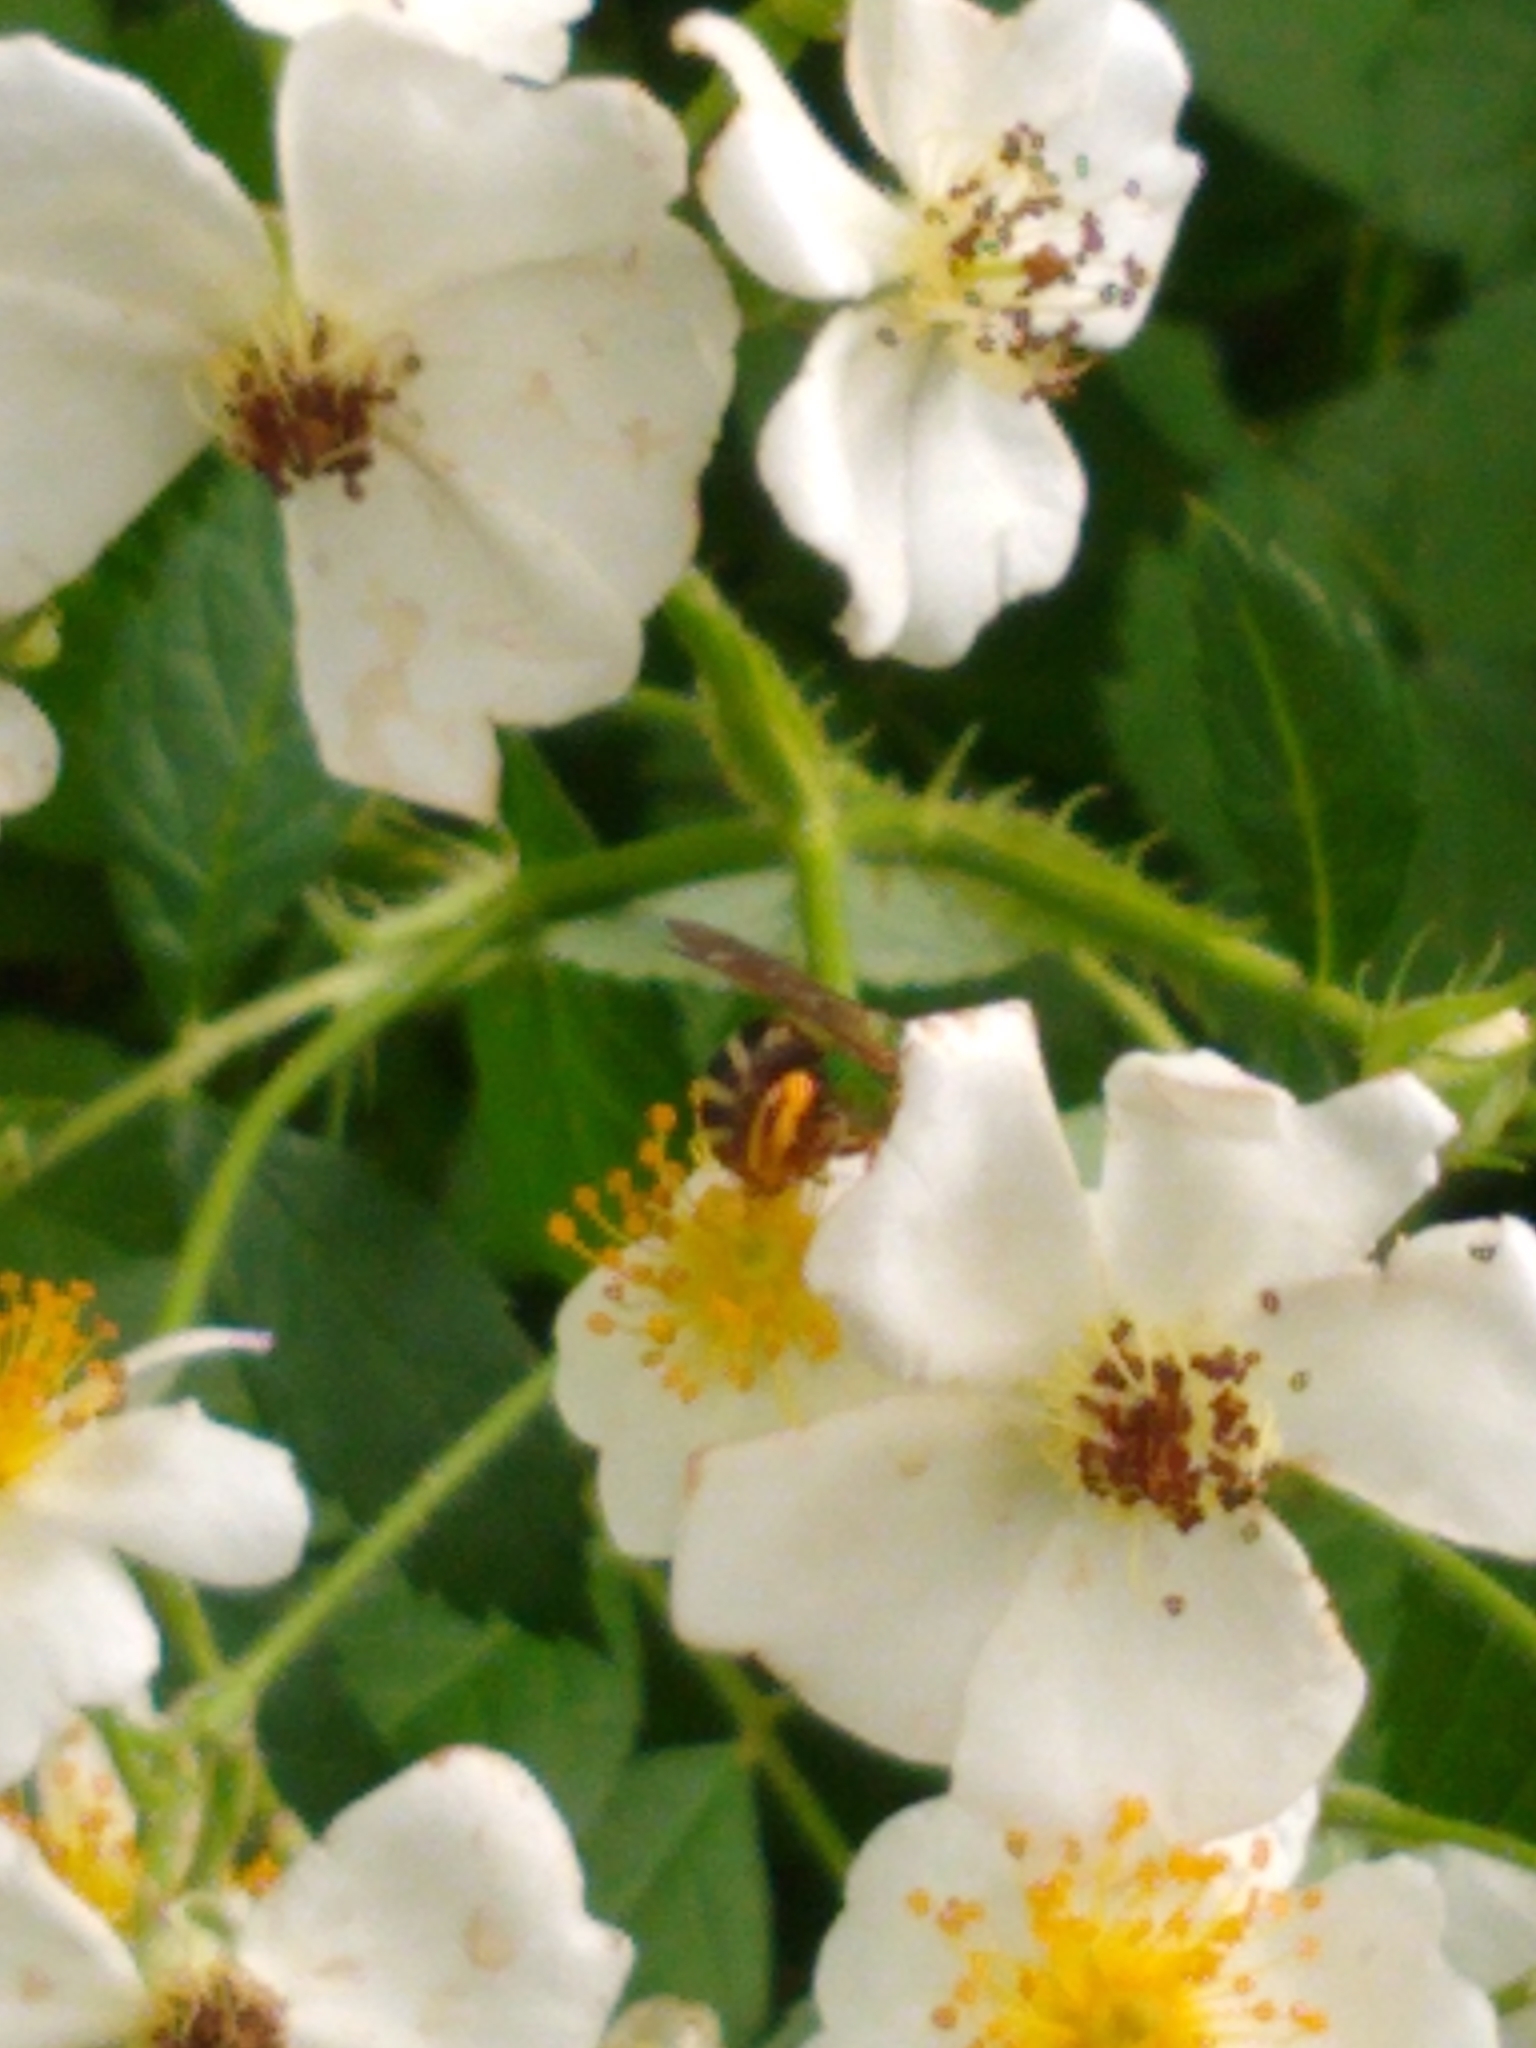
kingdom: Animalia
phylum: Arthropoda
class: Insecta
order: Hymenoptera
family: Halictidae
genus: Agapostemon
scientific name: Agapostemon virescens
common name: Bicolored striped sweat bee
